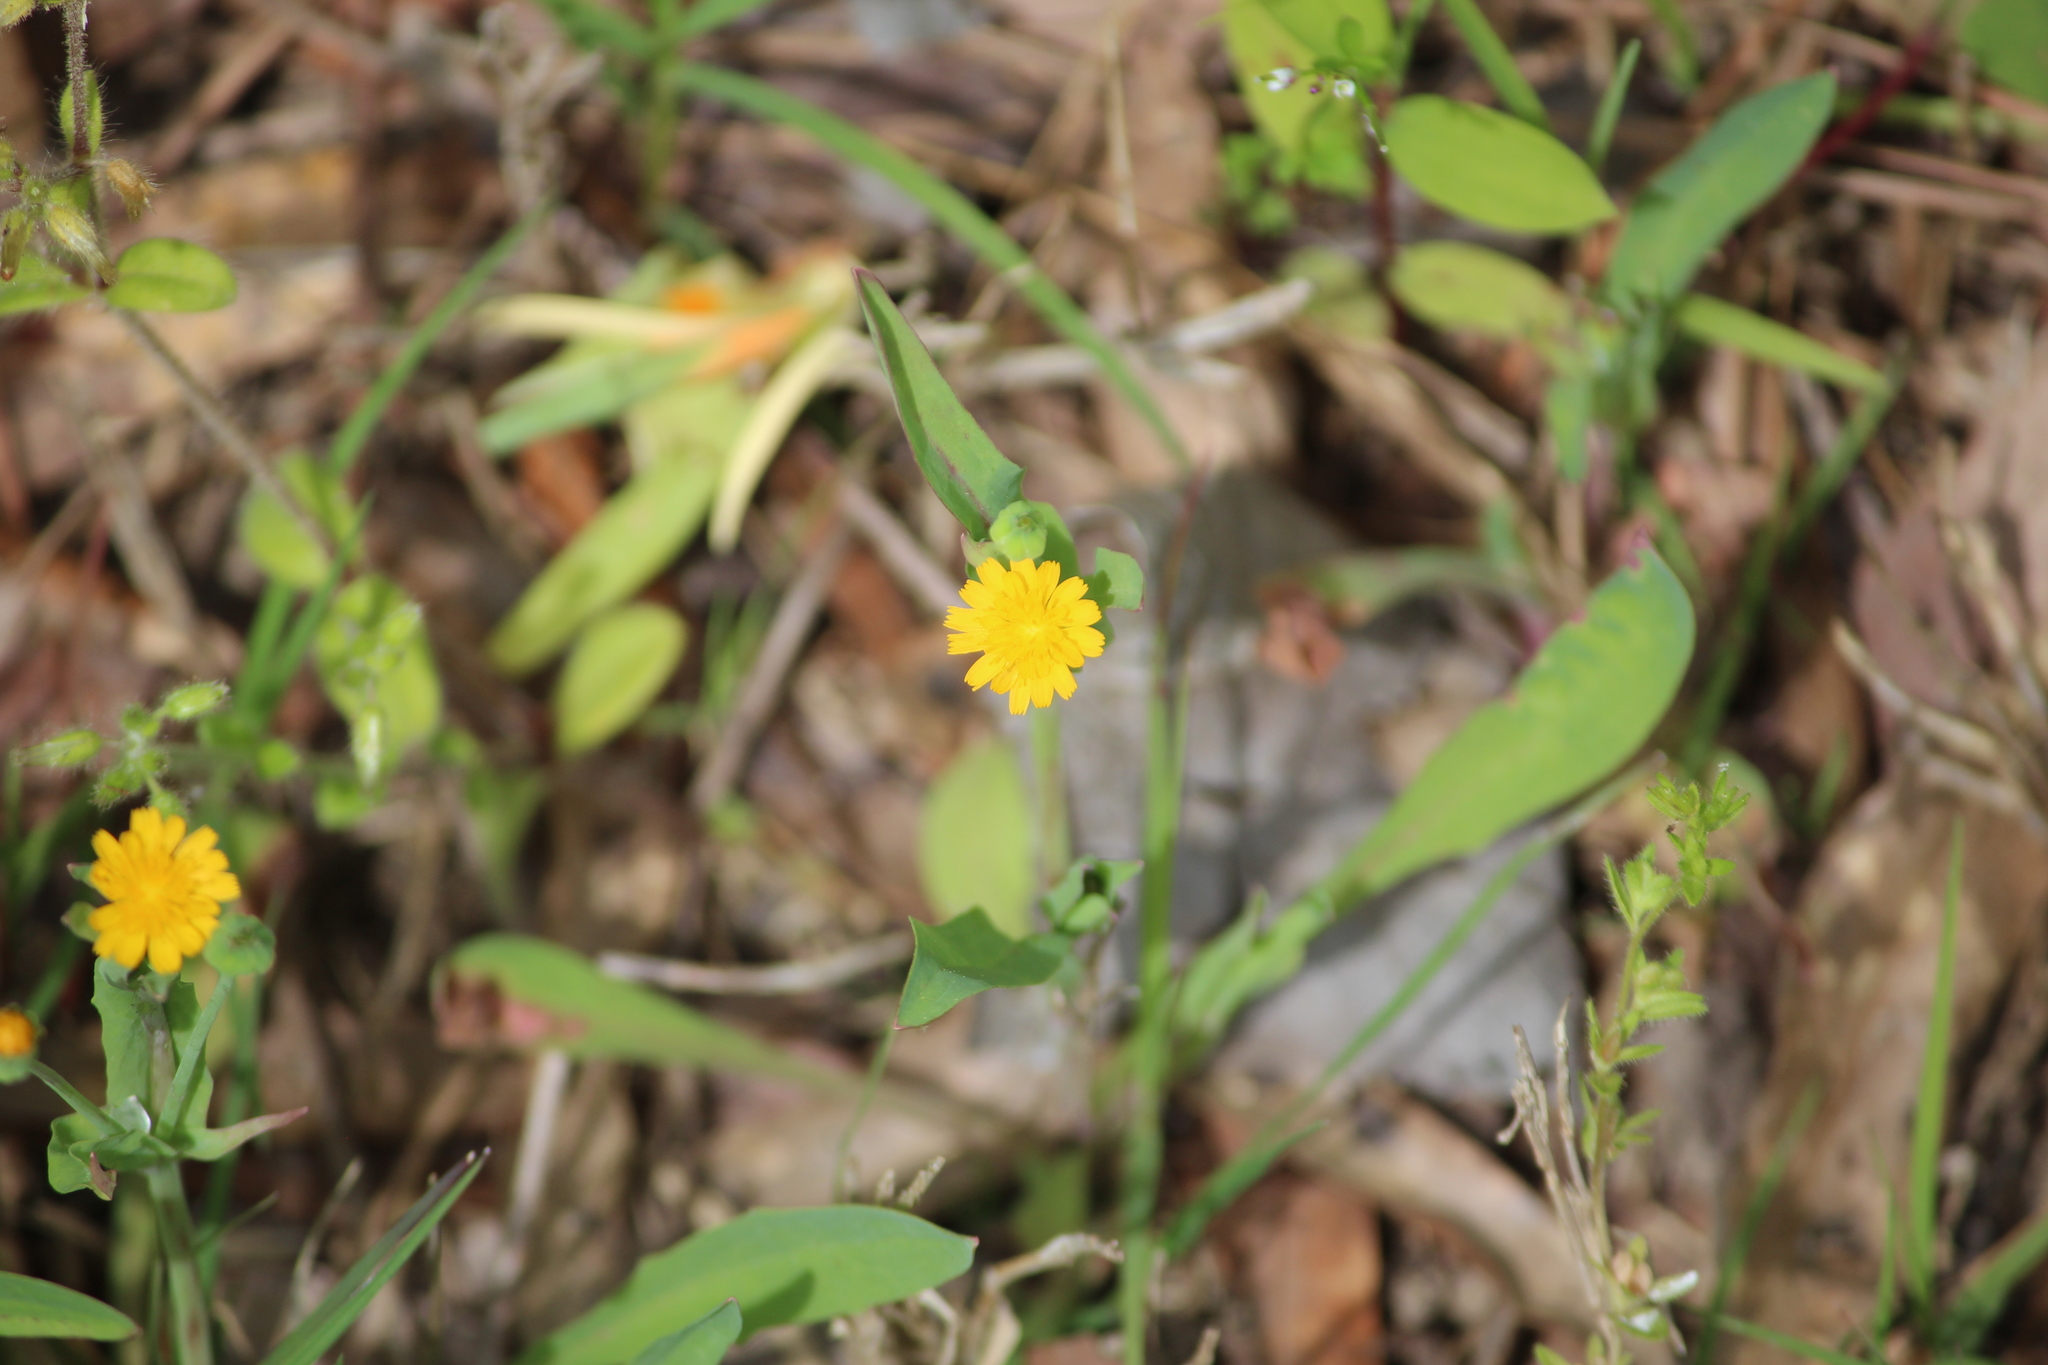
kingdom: Plantae
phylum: Tracheophyta
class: Magnoliopsida
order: Asterales
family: Asteraceae
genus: Krigia
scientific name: Krigia cespitosa
